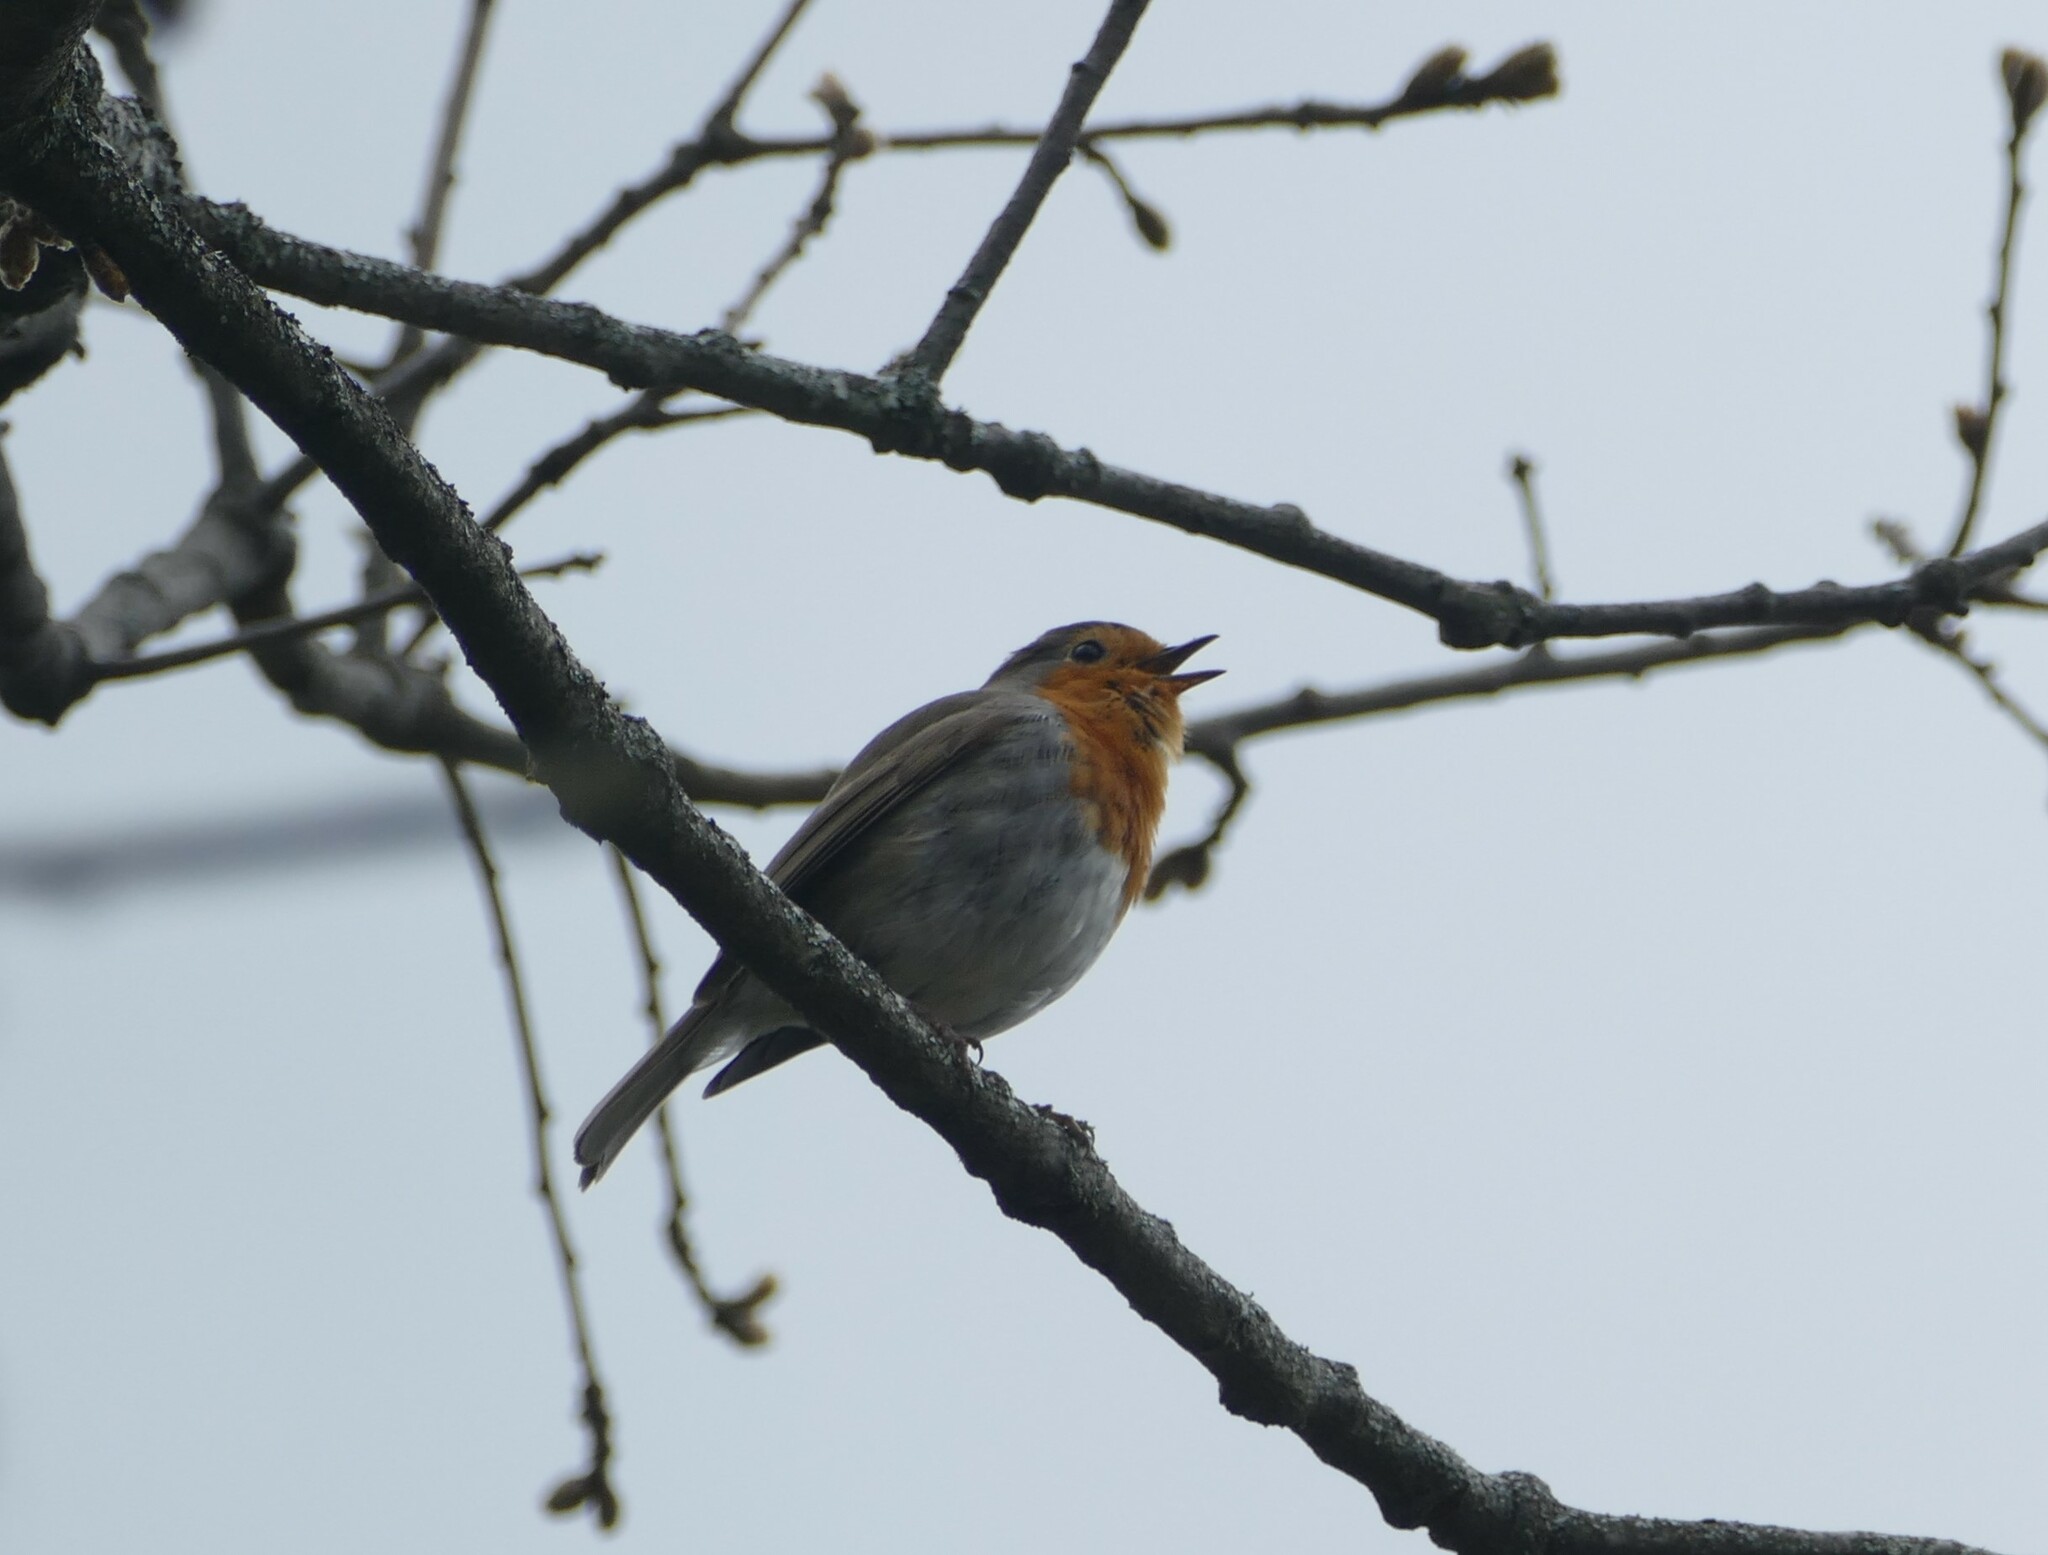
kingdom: Animalia
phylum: Chordata
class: Aves
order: Passeriformes
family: Muscicapidae
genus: Erithacus
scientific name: Erithacus rubecula
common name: European robin
